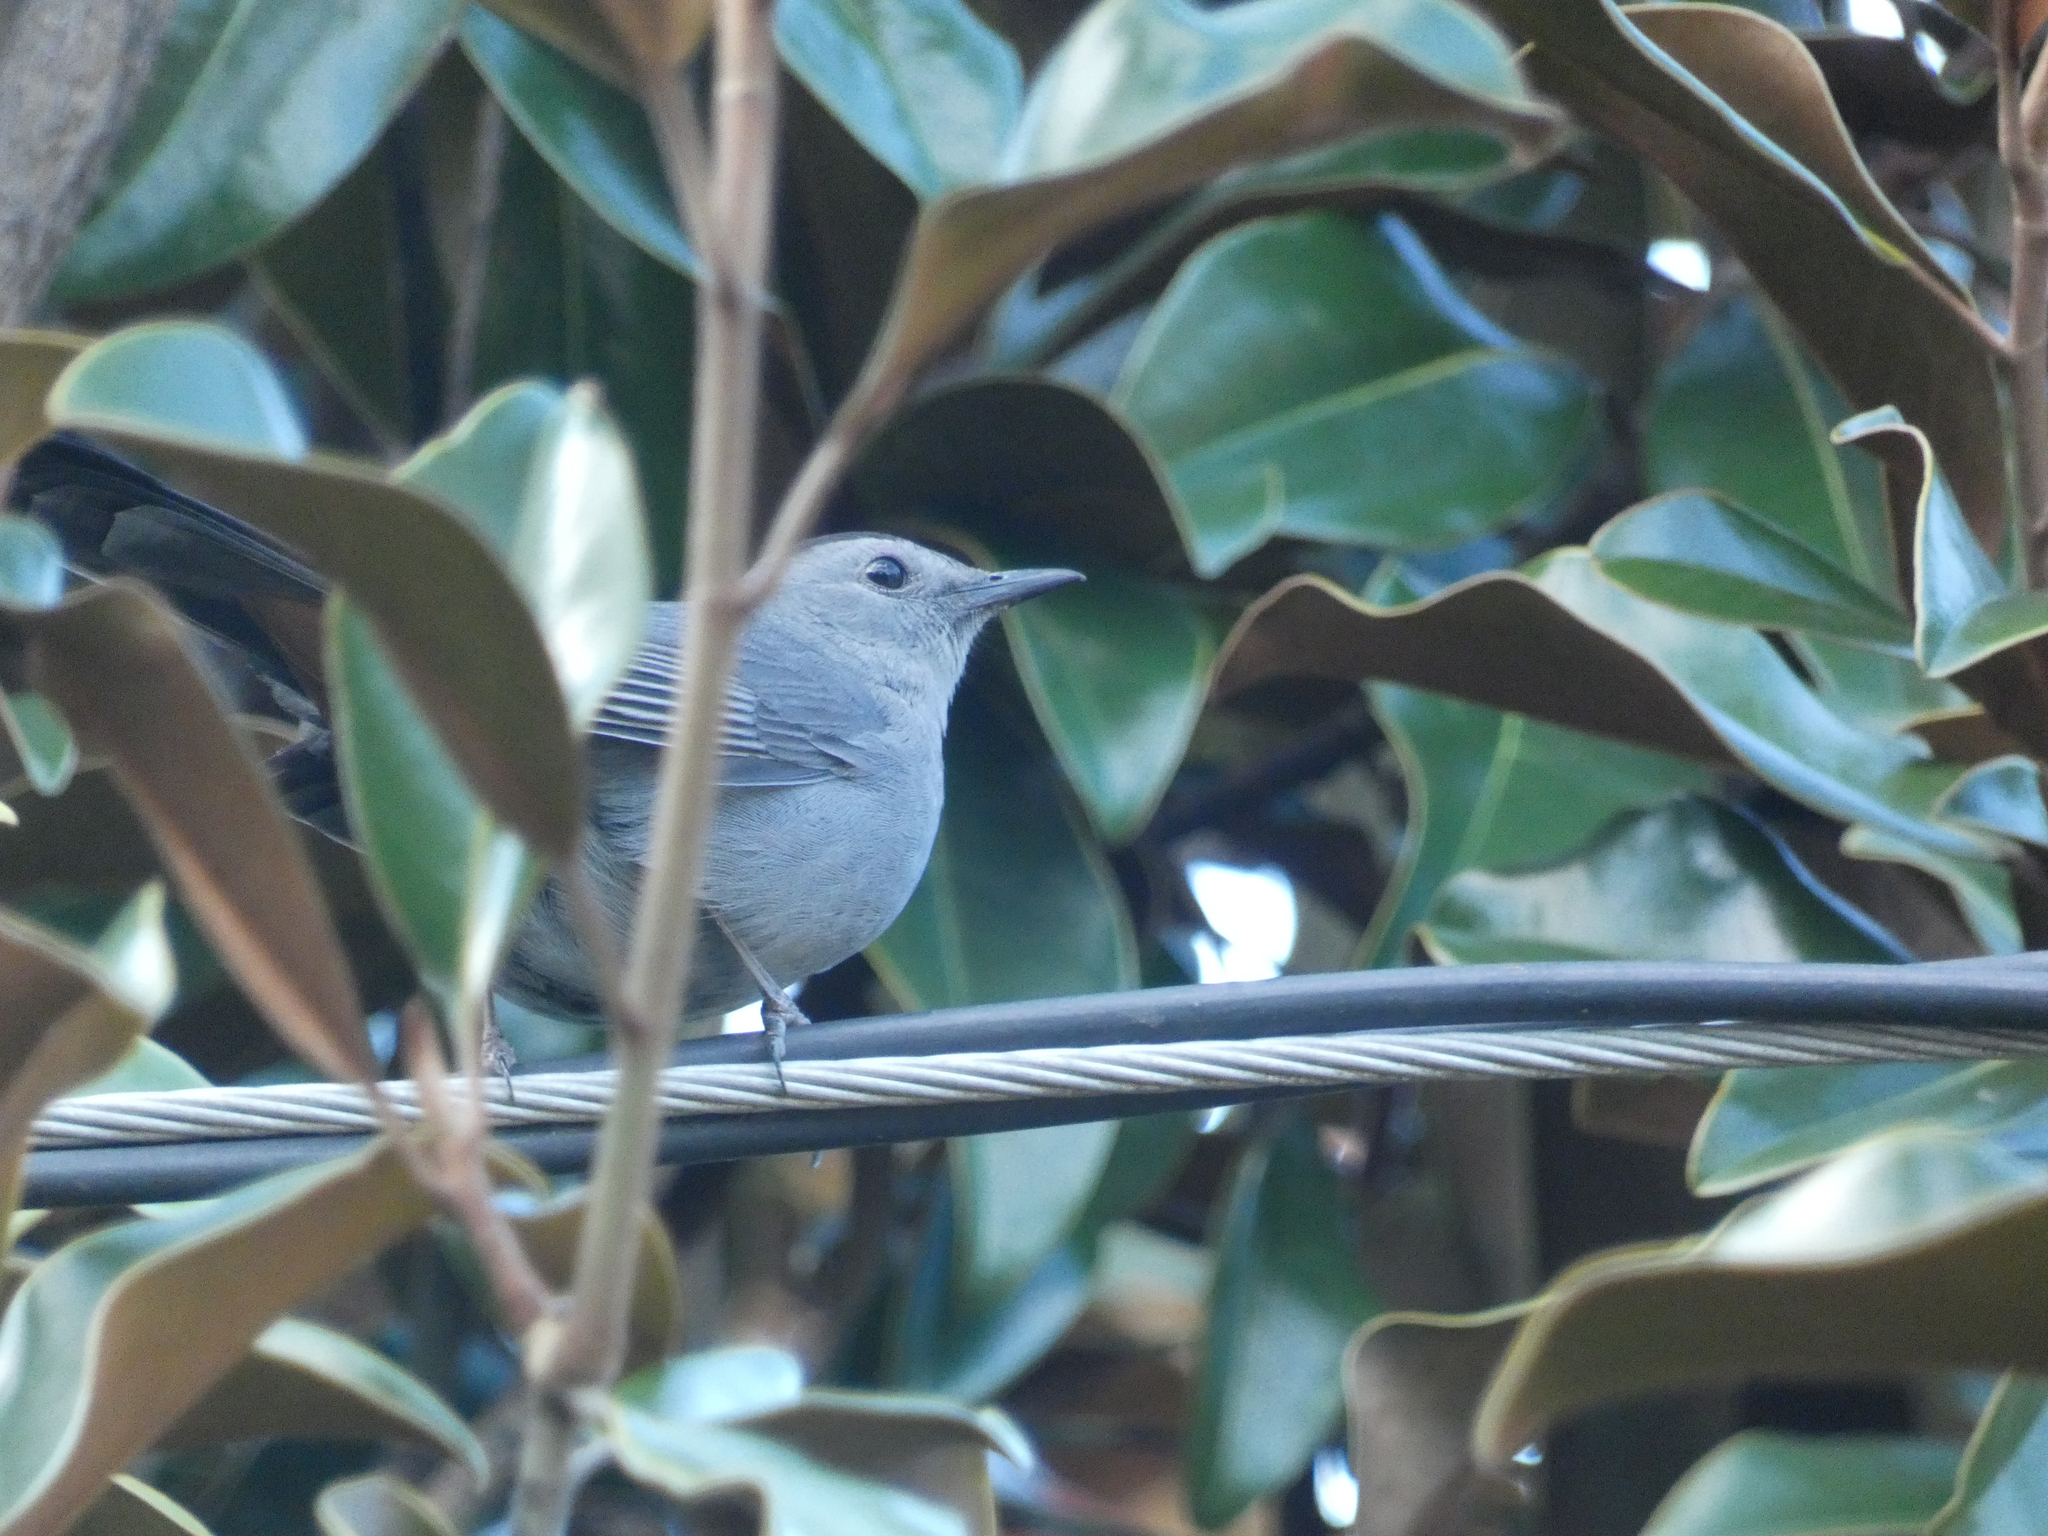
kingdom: Animalia
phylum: Chordata
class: Aves
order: Passeriformes
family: Mimidae
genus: Dumetella
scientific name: Dumetella carolinensis
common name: Gray catbird
